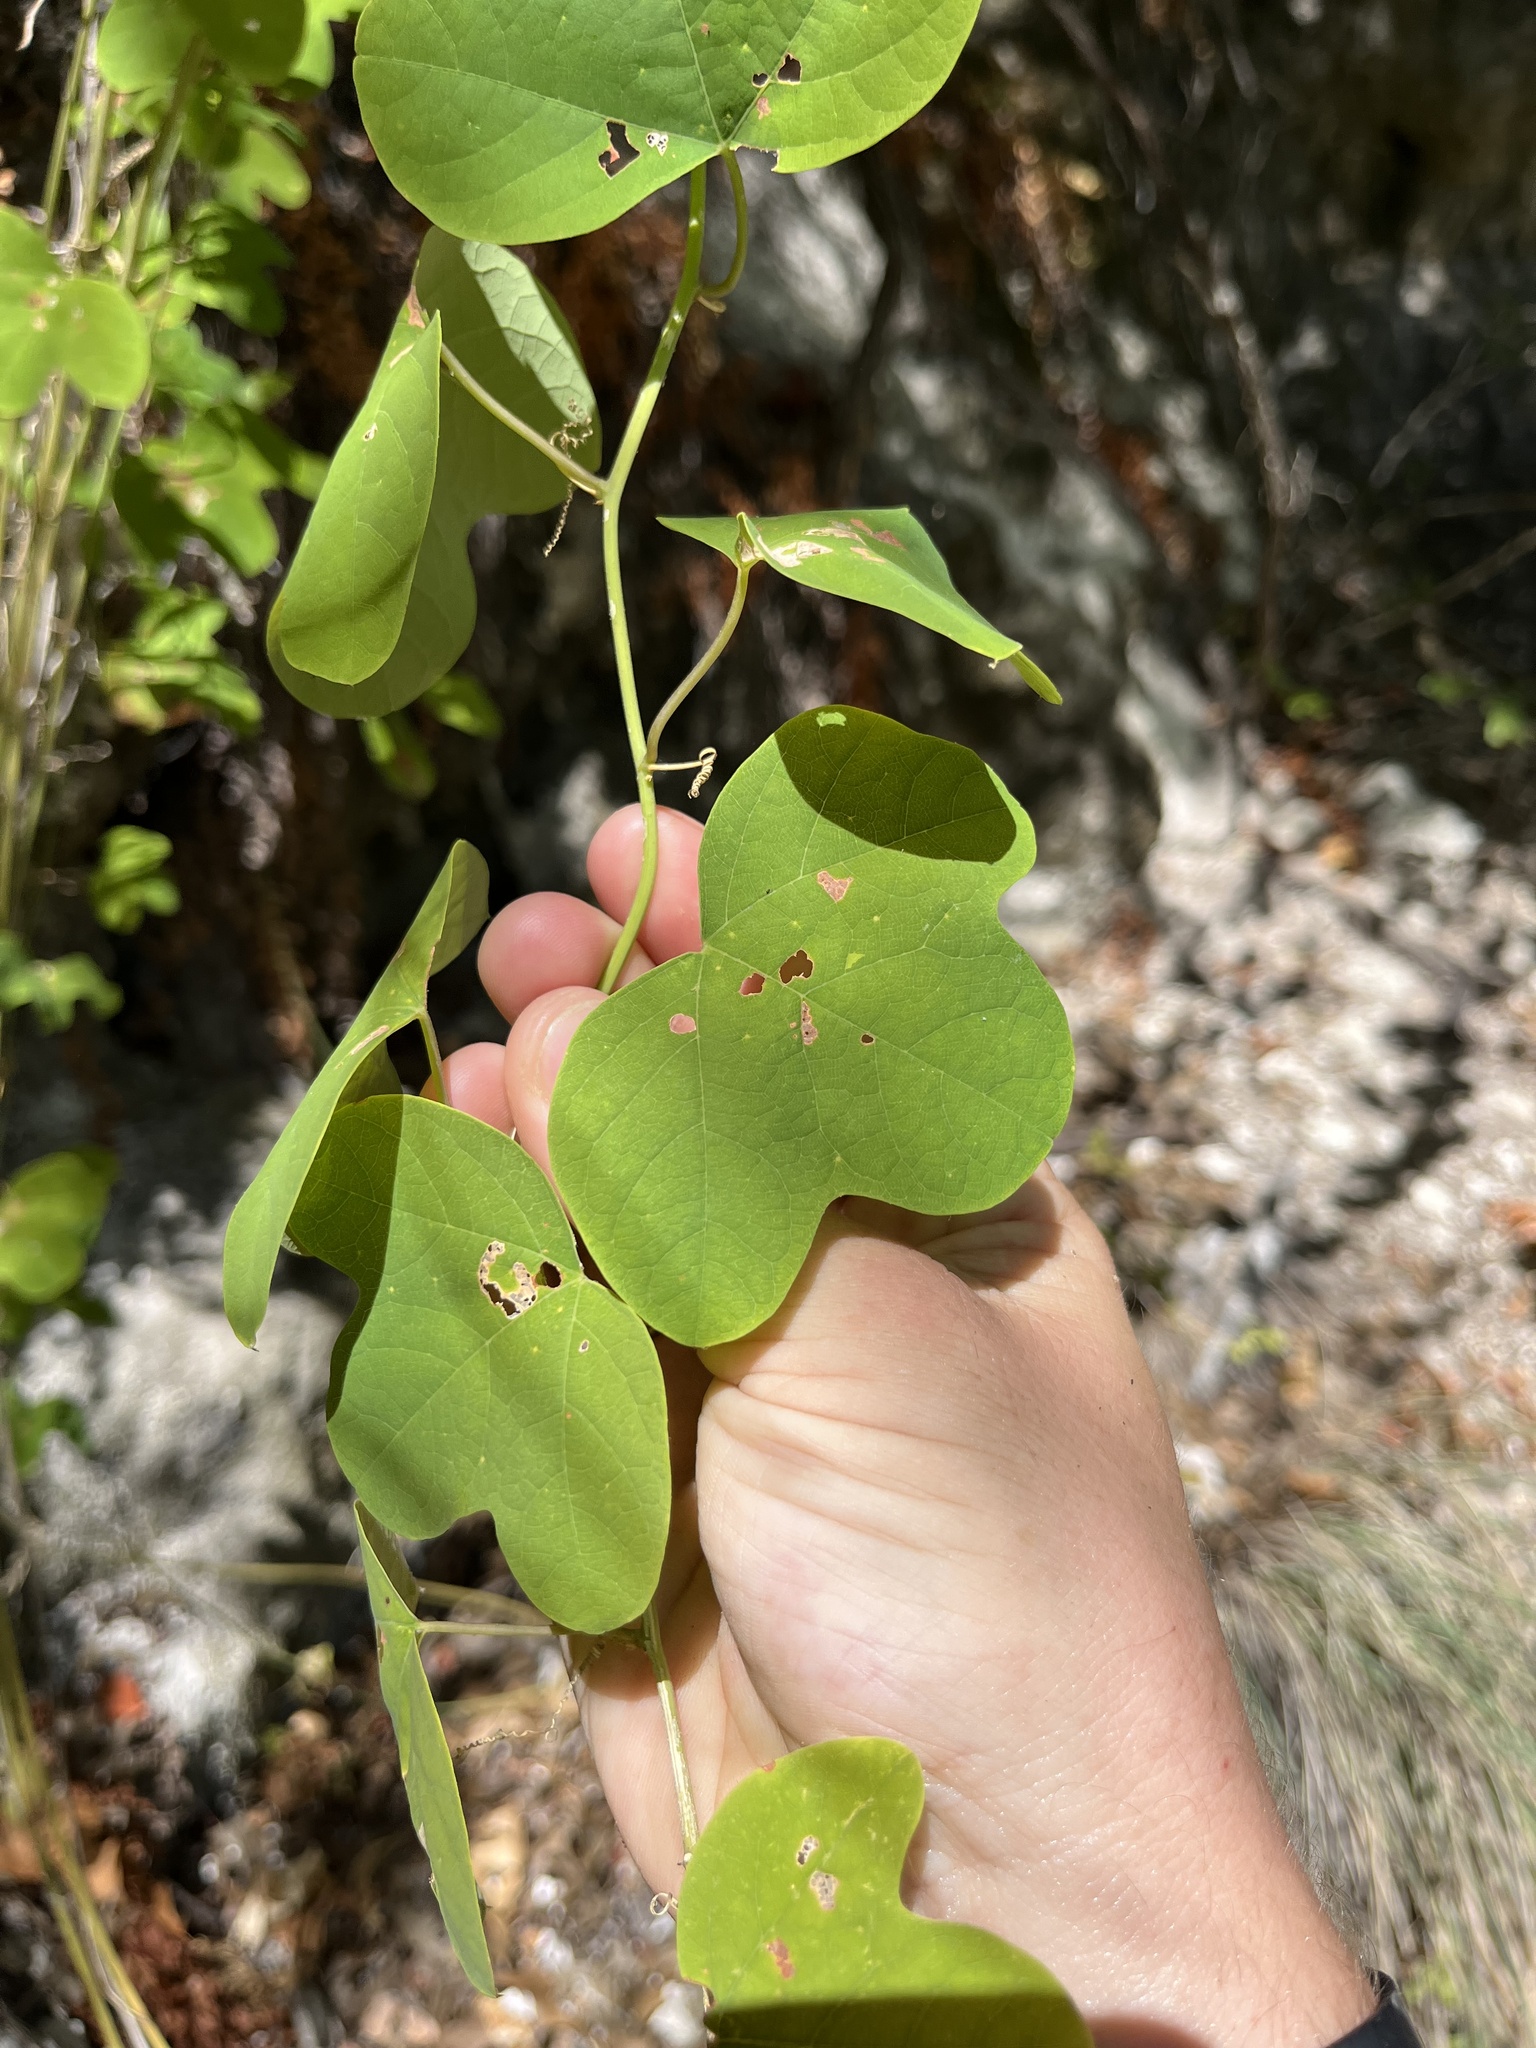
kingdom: Plantae
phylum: Tracheophyta
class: Magnoliopsida
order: Malpighiales
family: Passifloraceae
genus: Passiflora
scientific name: Passiflora affinis
